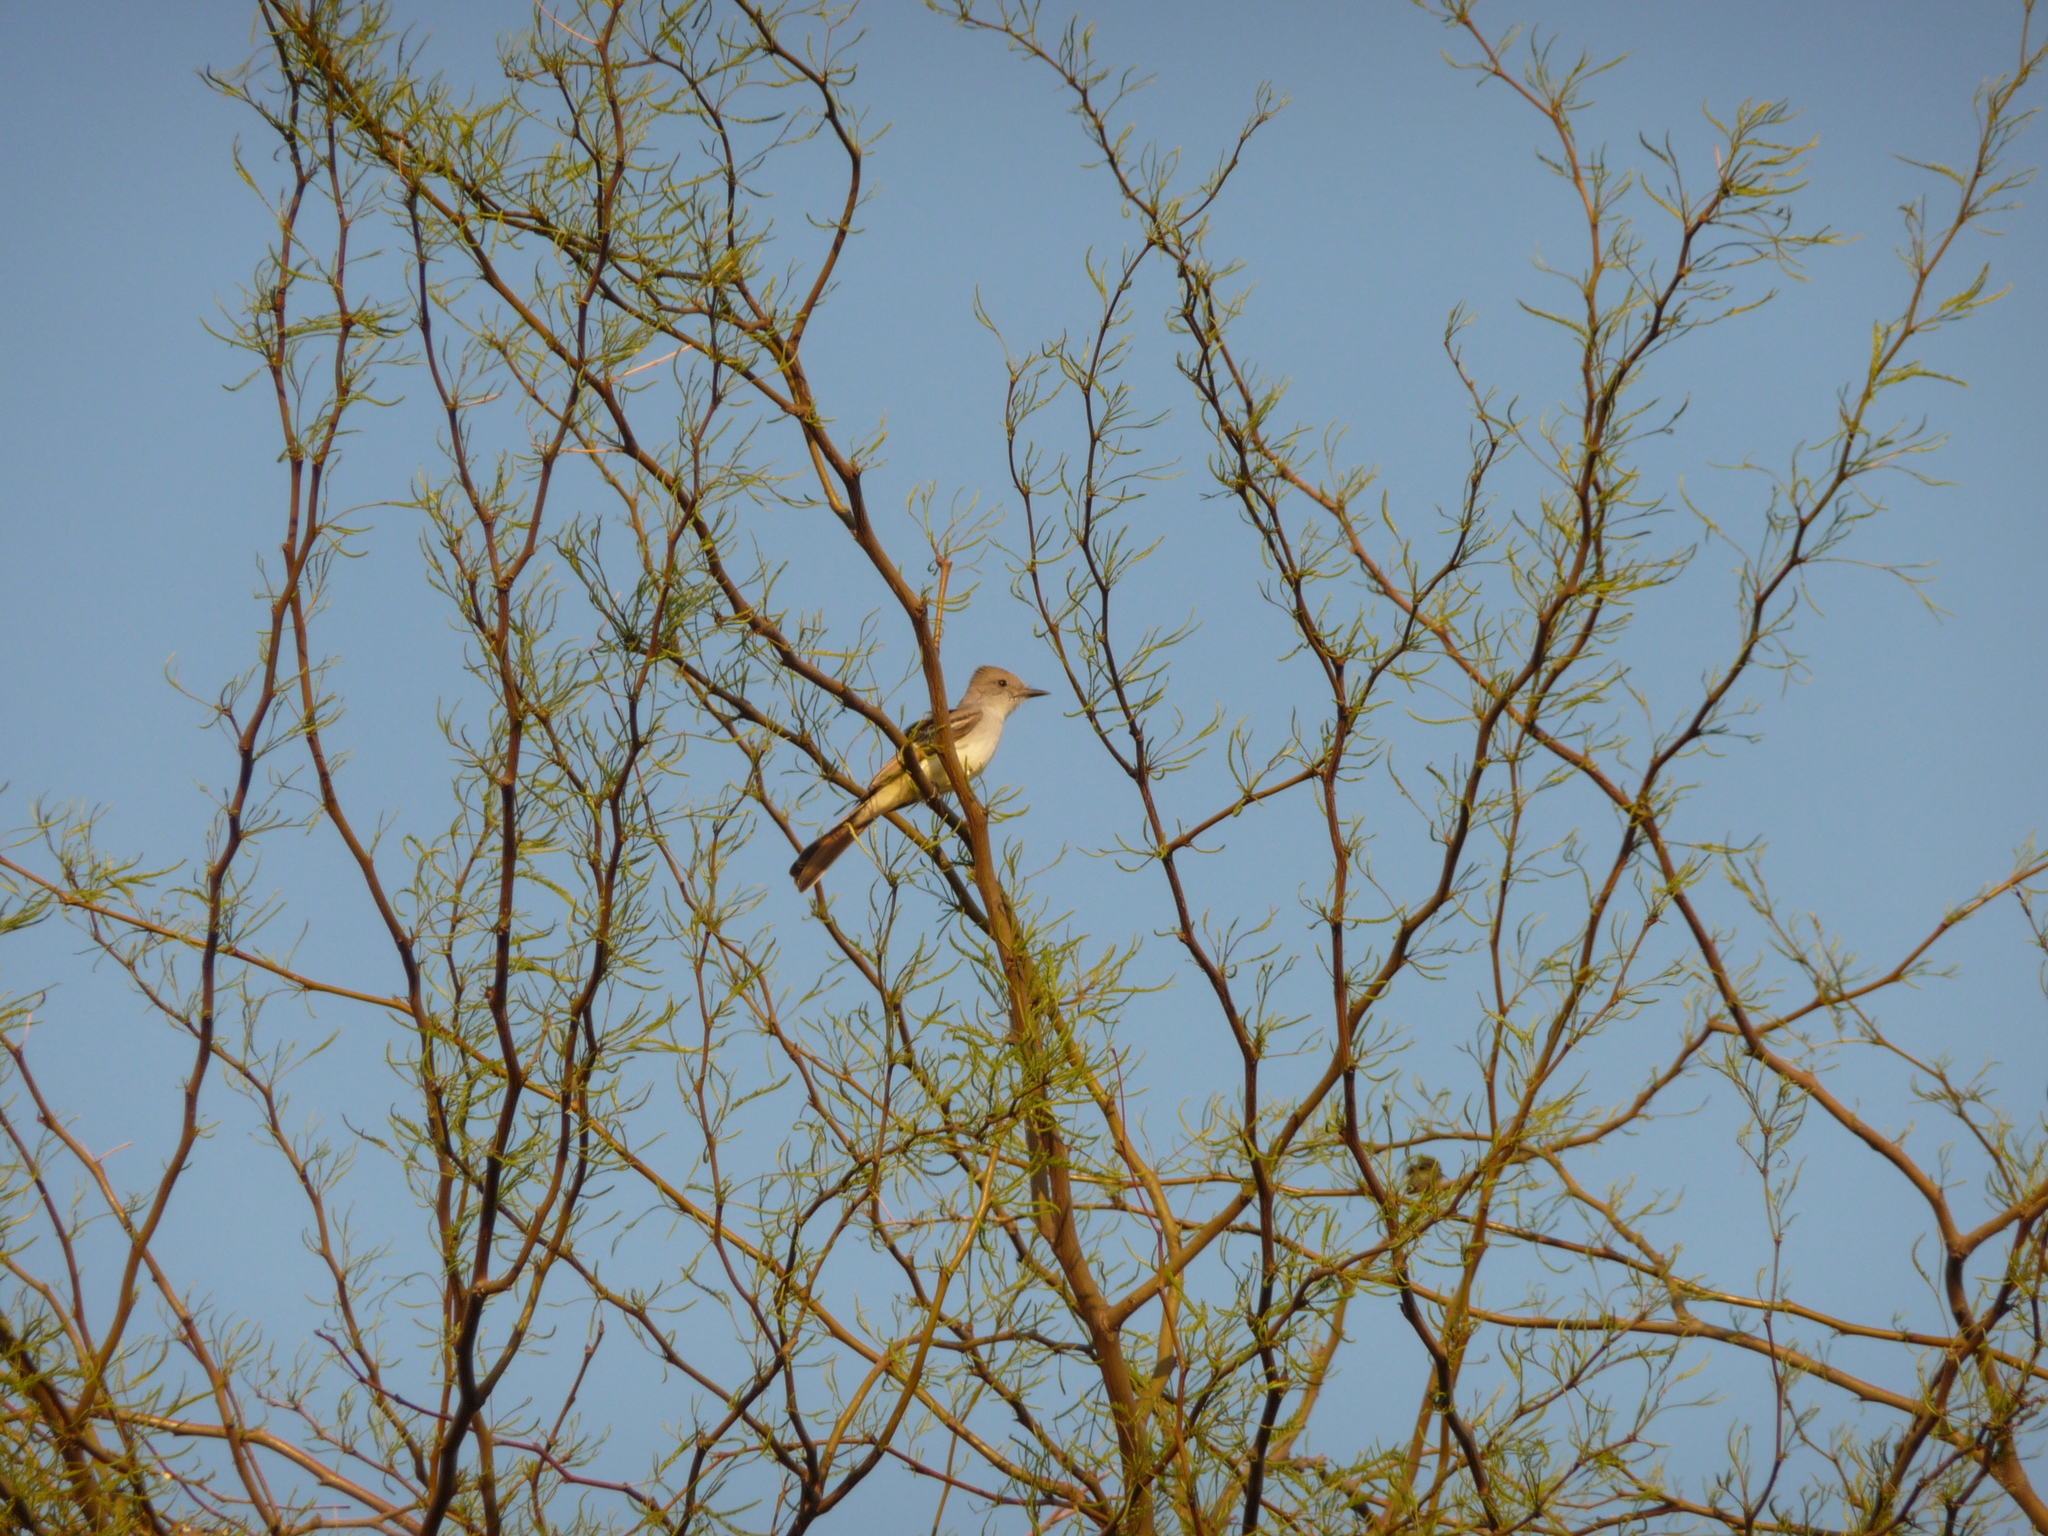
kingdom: Animalia
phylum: Chordata
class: Aves
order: Passeriformes
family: Tyrannidae
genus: Myiarchus
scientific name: Myiarchus cinerascens
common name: Ash-throated flycatcher
